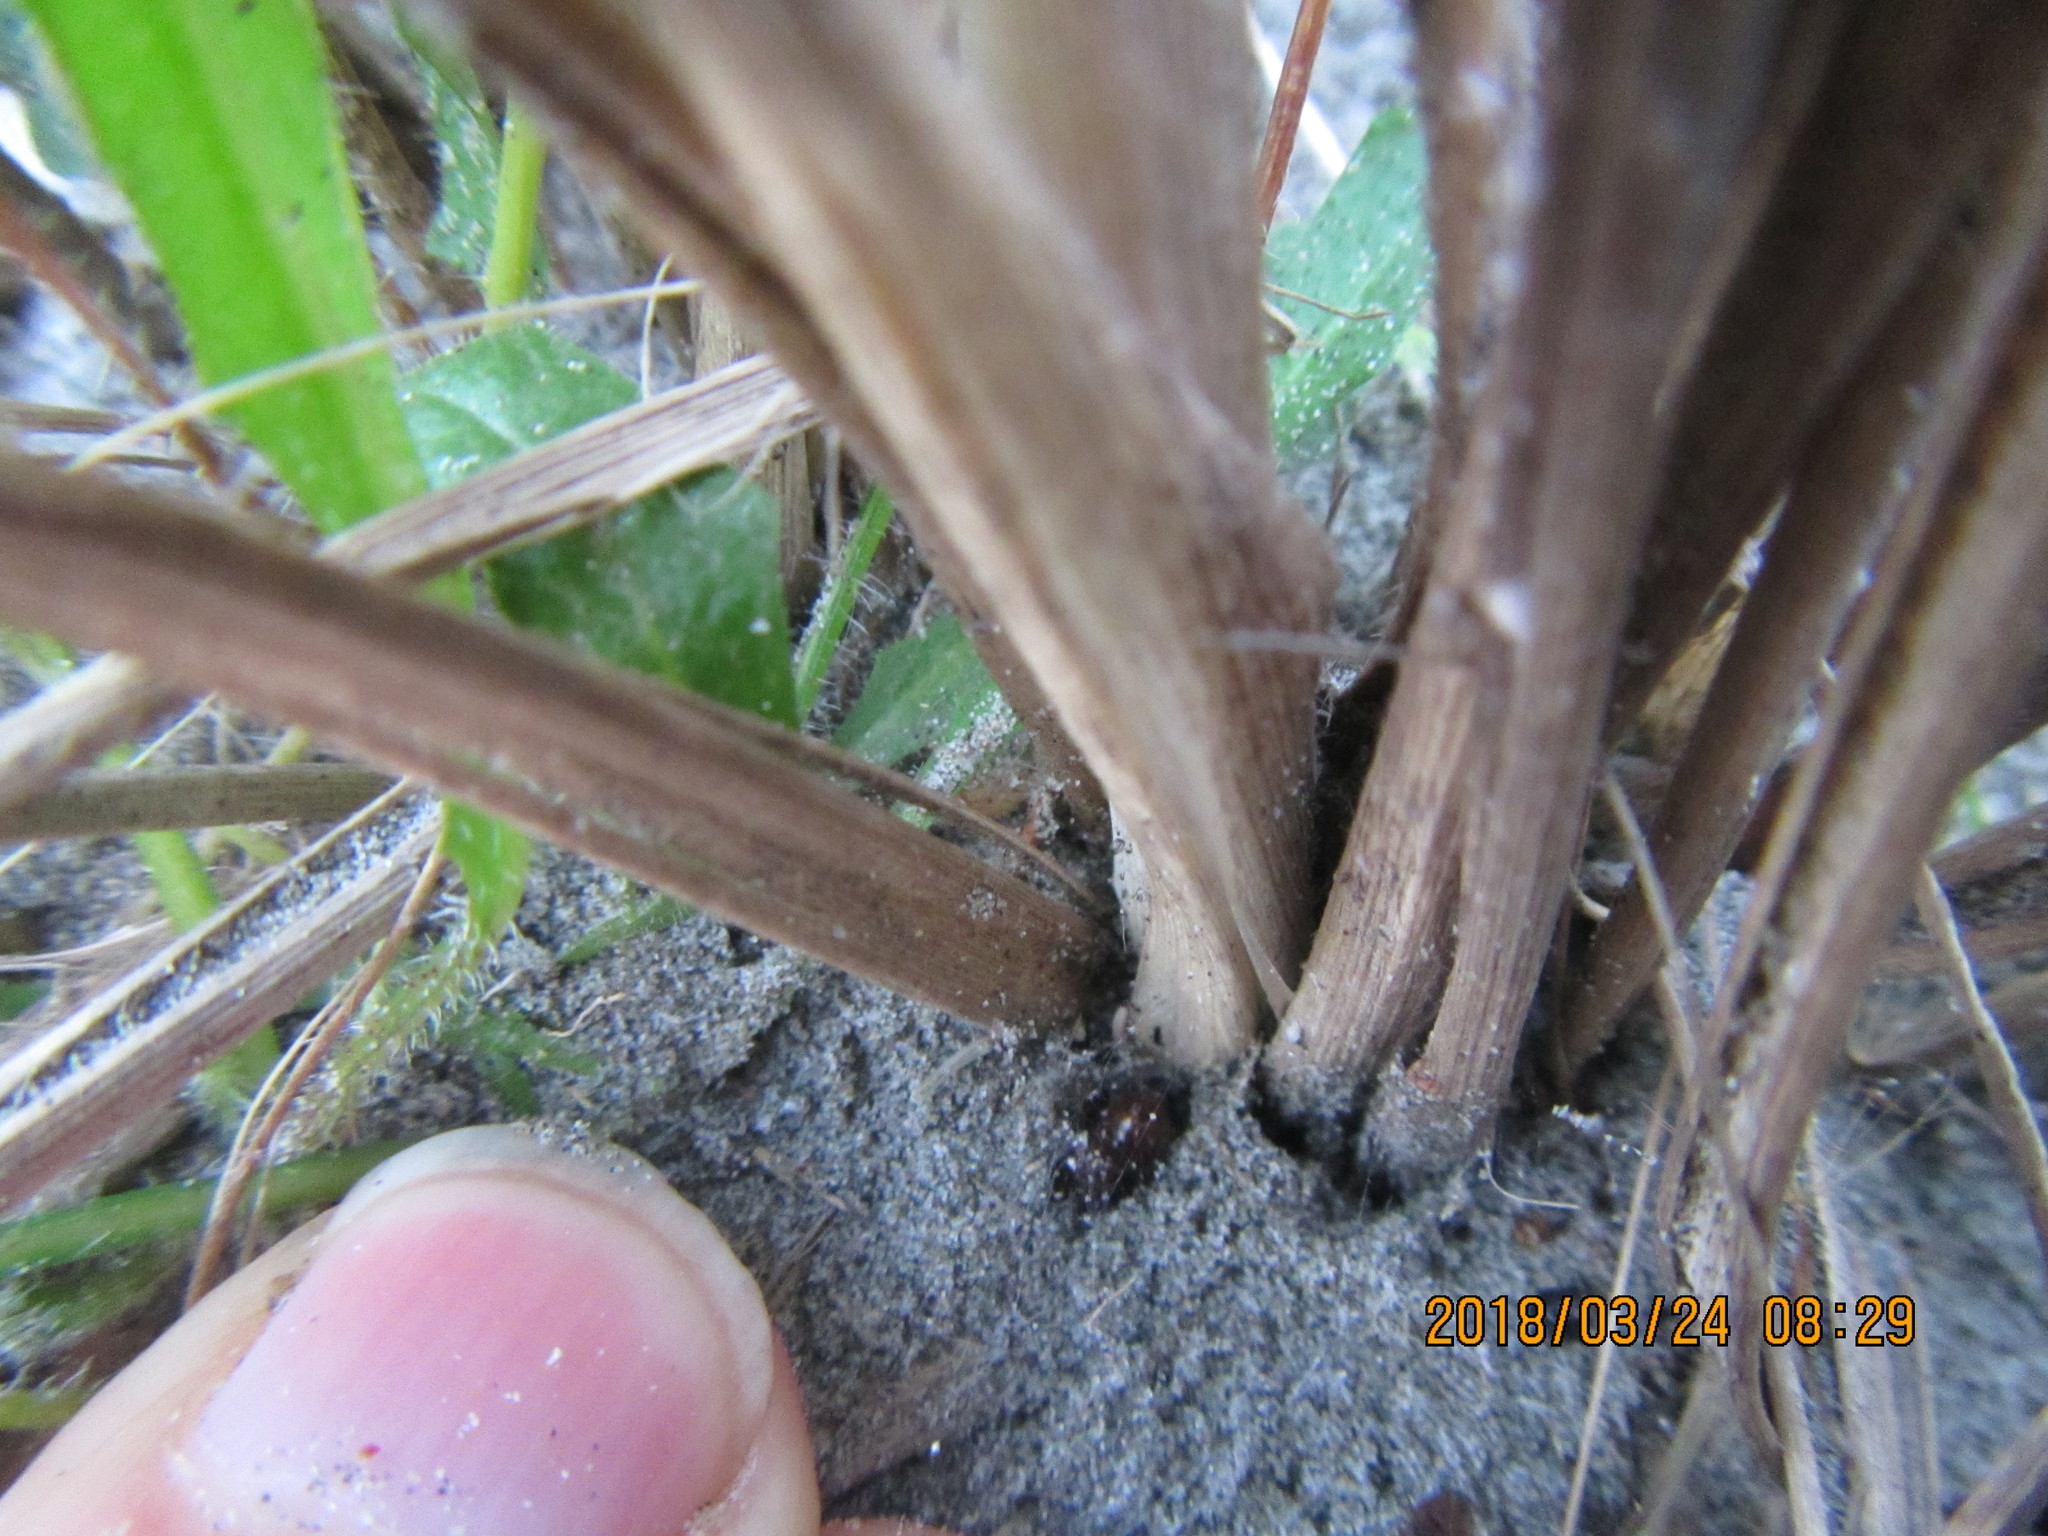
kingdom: Animalia
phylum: Arthropoda
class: Arachnida
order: Araneae
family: Theridiidae
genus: Steatoda
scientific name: Steatoda capensis
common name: Cobweb weaver
